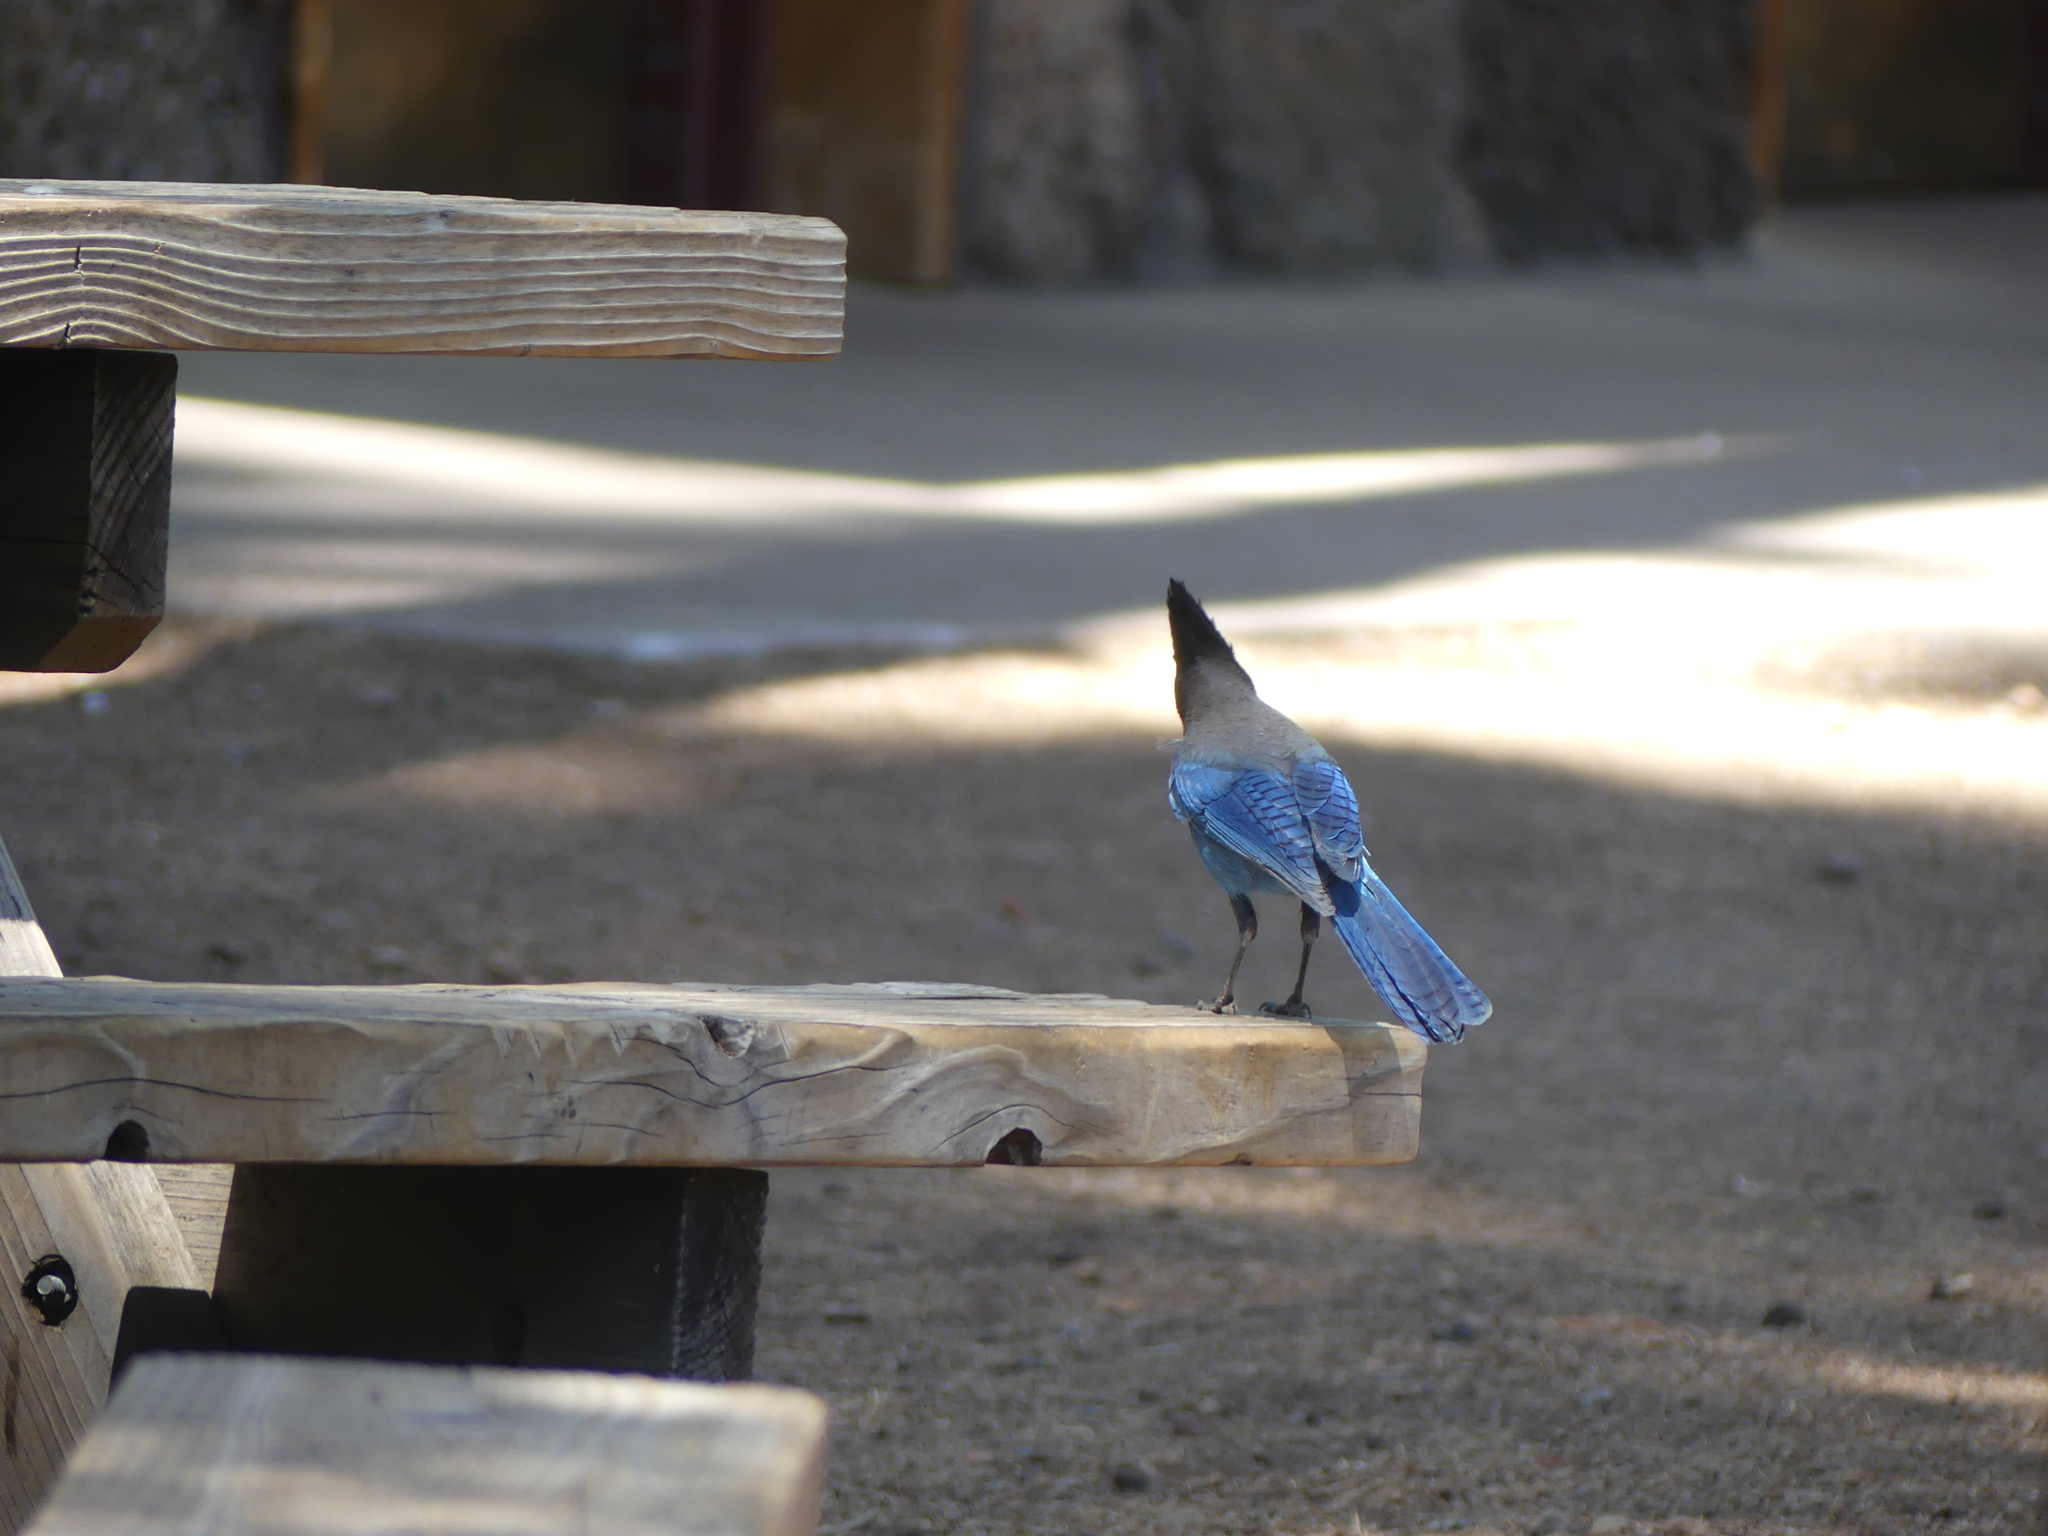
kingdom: Animalia
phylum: Chordata
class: Aves
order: Passeriformes
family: Corvidae
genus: Cyanocitta
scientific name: Cyanocitta stelleri
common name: Steller's jay
